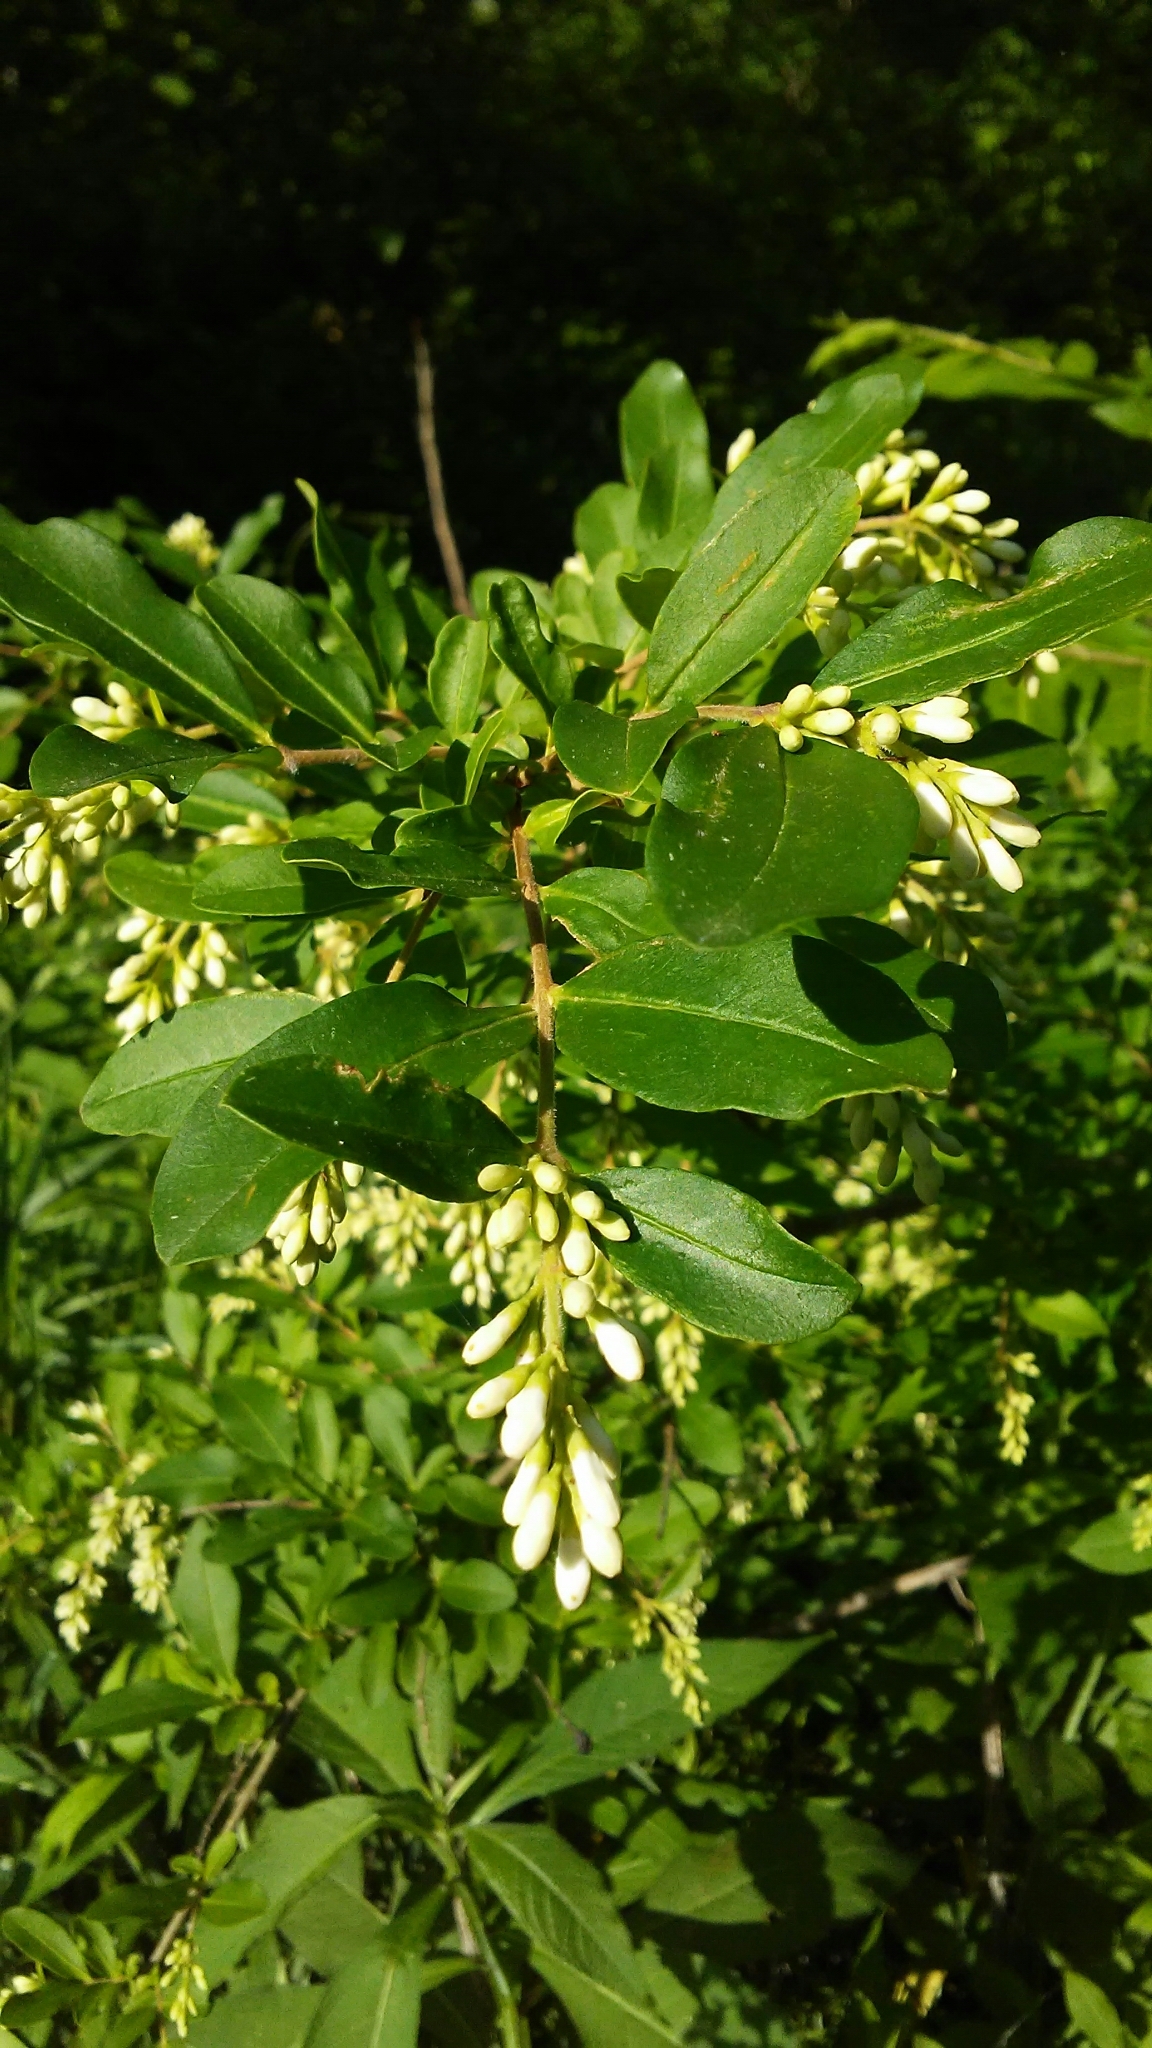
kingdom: Plantae
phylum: Tracheophyta
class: Magnoliopsida
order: Lamiales
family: Oleaceae
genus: Ligustrum
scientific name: Ligustrum obtusifolium
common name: Border privet
